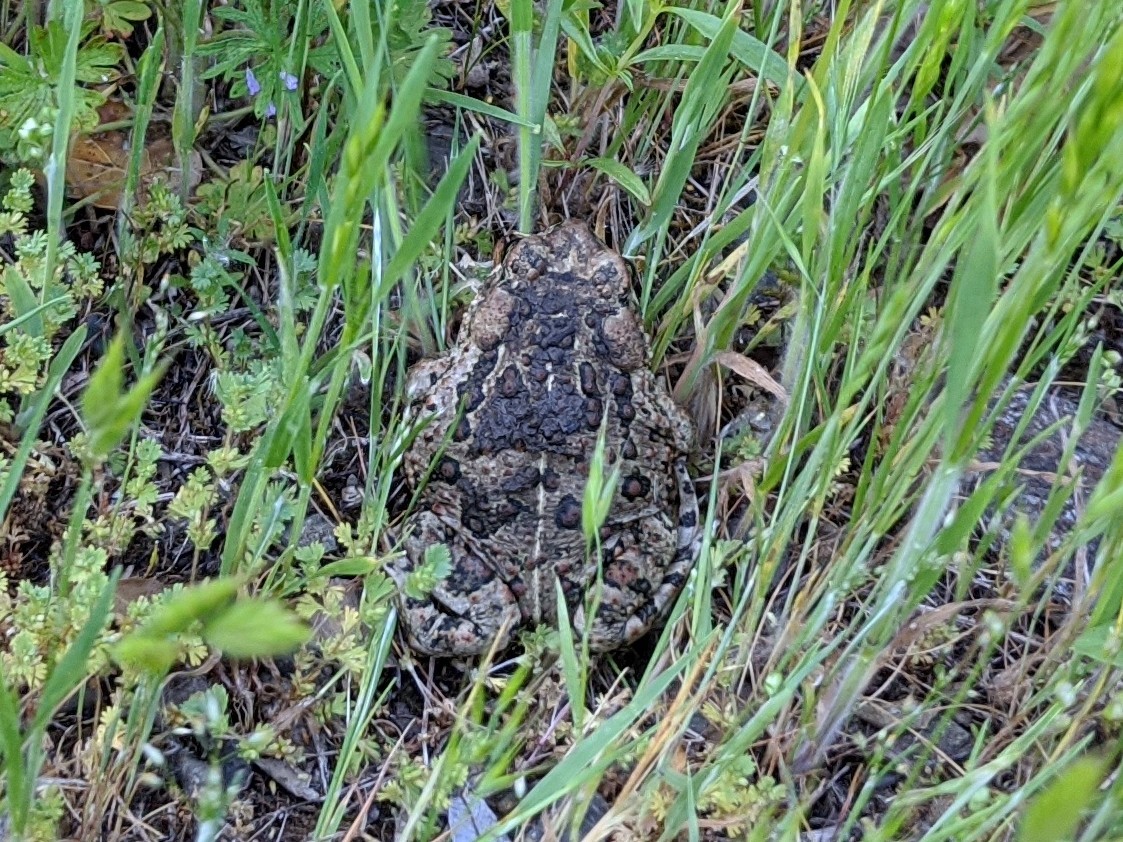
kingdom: Animalia
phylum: Chordata
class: Amphibia
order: Anura
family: Bufonidae
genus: Anaxyrus
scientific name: Anaxyrus boreas
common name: Western toad
